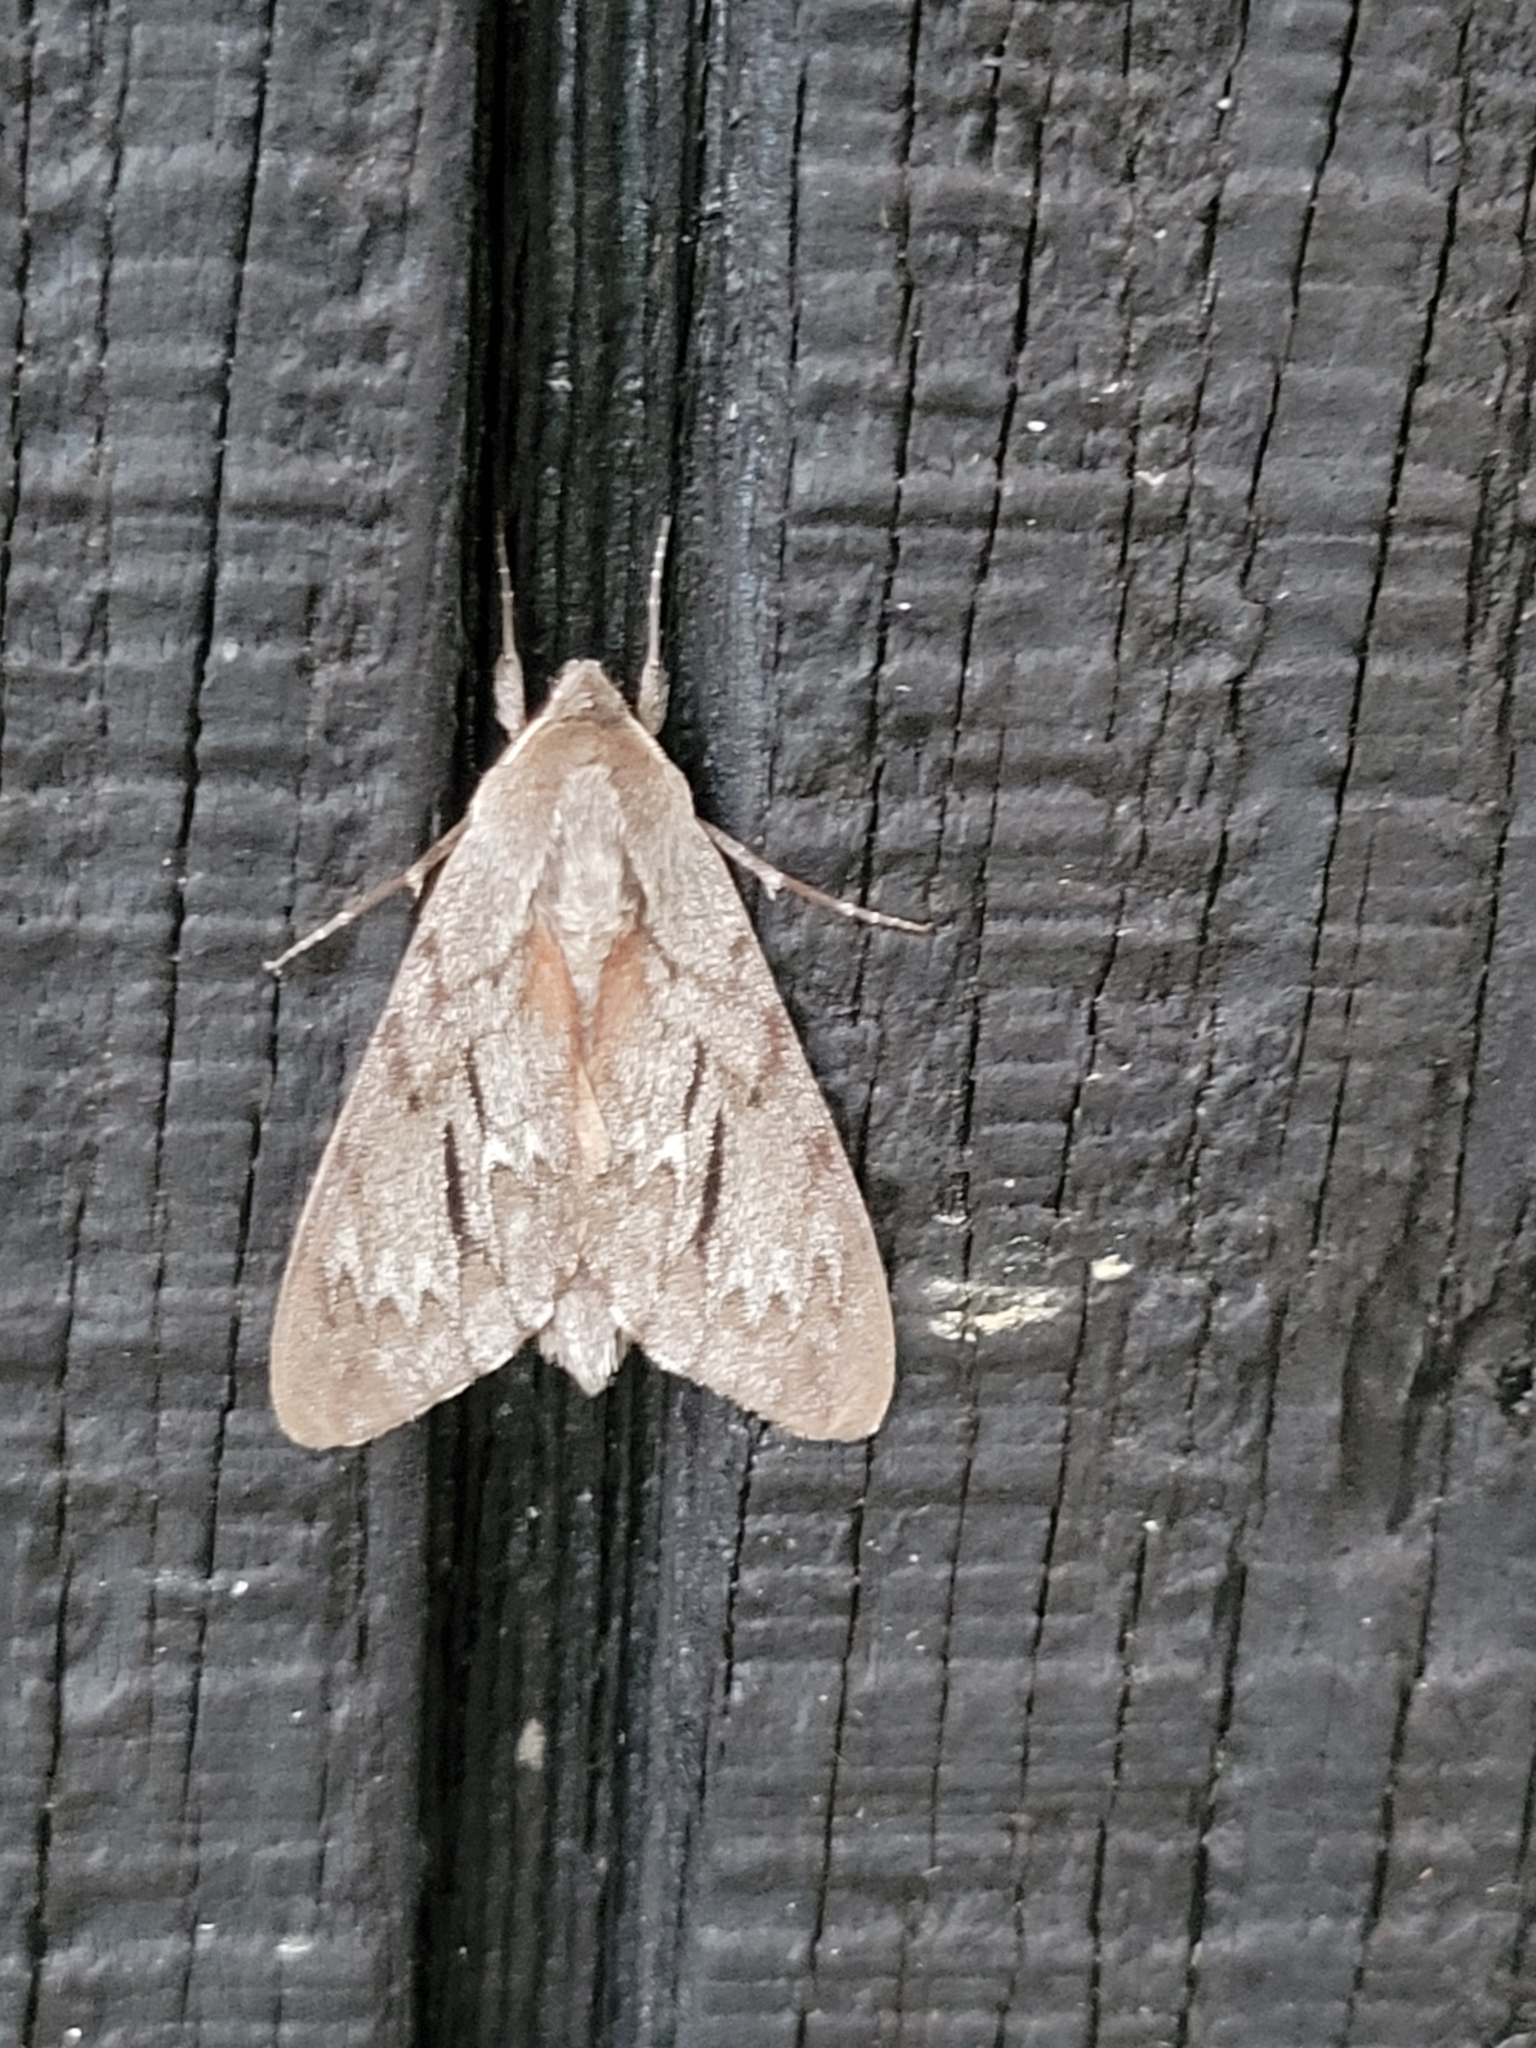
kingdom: Animalia
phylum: Arthropoda
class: Insecta
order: Lepidoptera
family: Sphingidae
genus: Lapara
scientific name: Lapara coniferarum
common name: Southern pine sphinx
